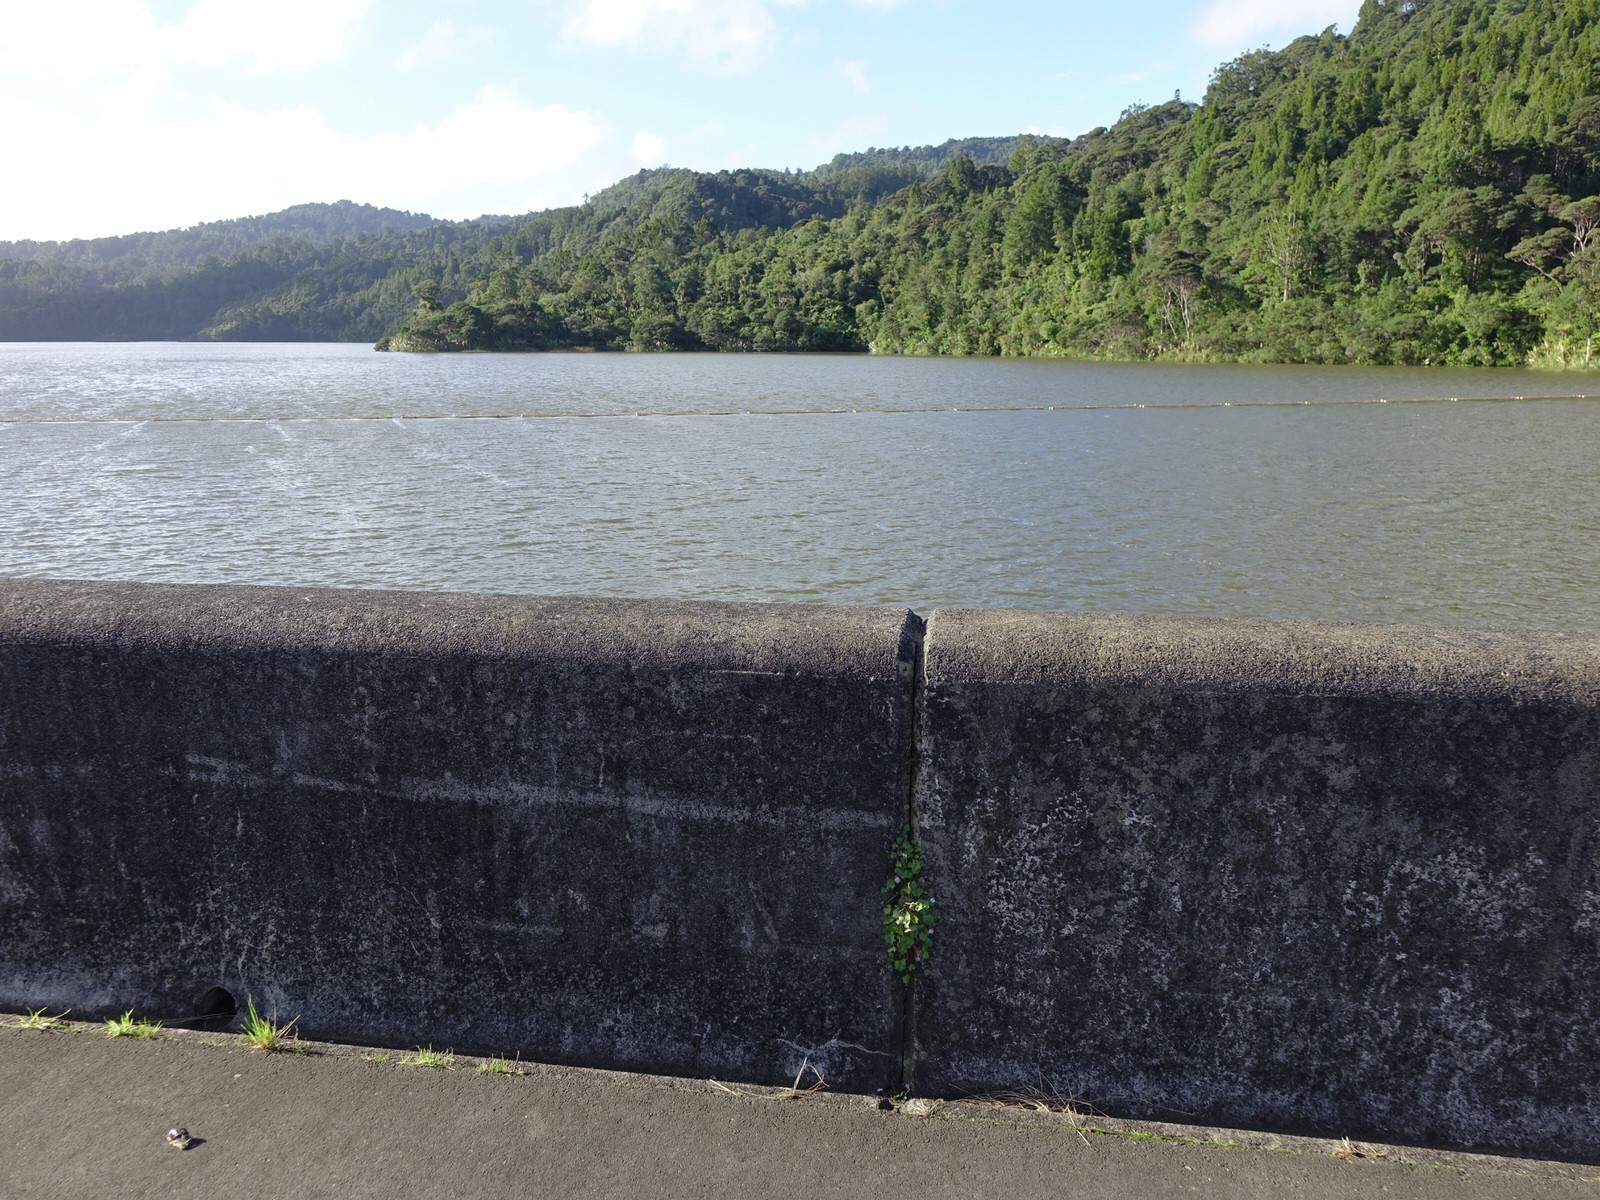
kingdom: Plantae
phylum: Tracheophyta
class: Magnoliopsida
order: Lamiales
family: Plantaginaceae
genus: Cymbalaria
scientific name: Cymbalaria muralis
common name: Ivy-leaved toadflax
